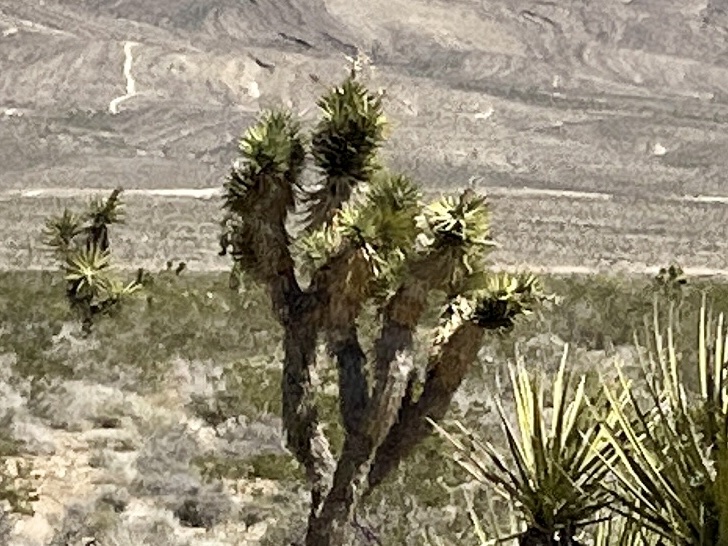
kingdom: Plantae
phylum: Tracheophyta
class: Liliopsida
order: Asparagales
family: Asparagaceae
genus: Yucca
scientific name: Yucca brevifolia
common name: Joshua tree
